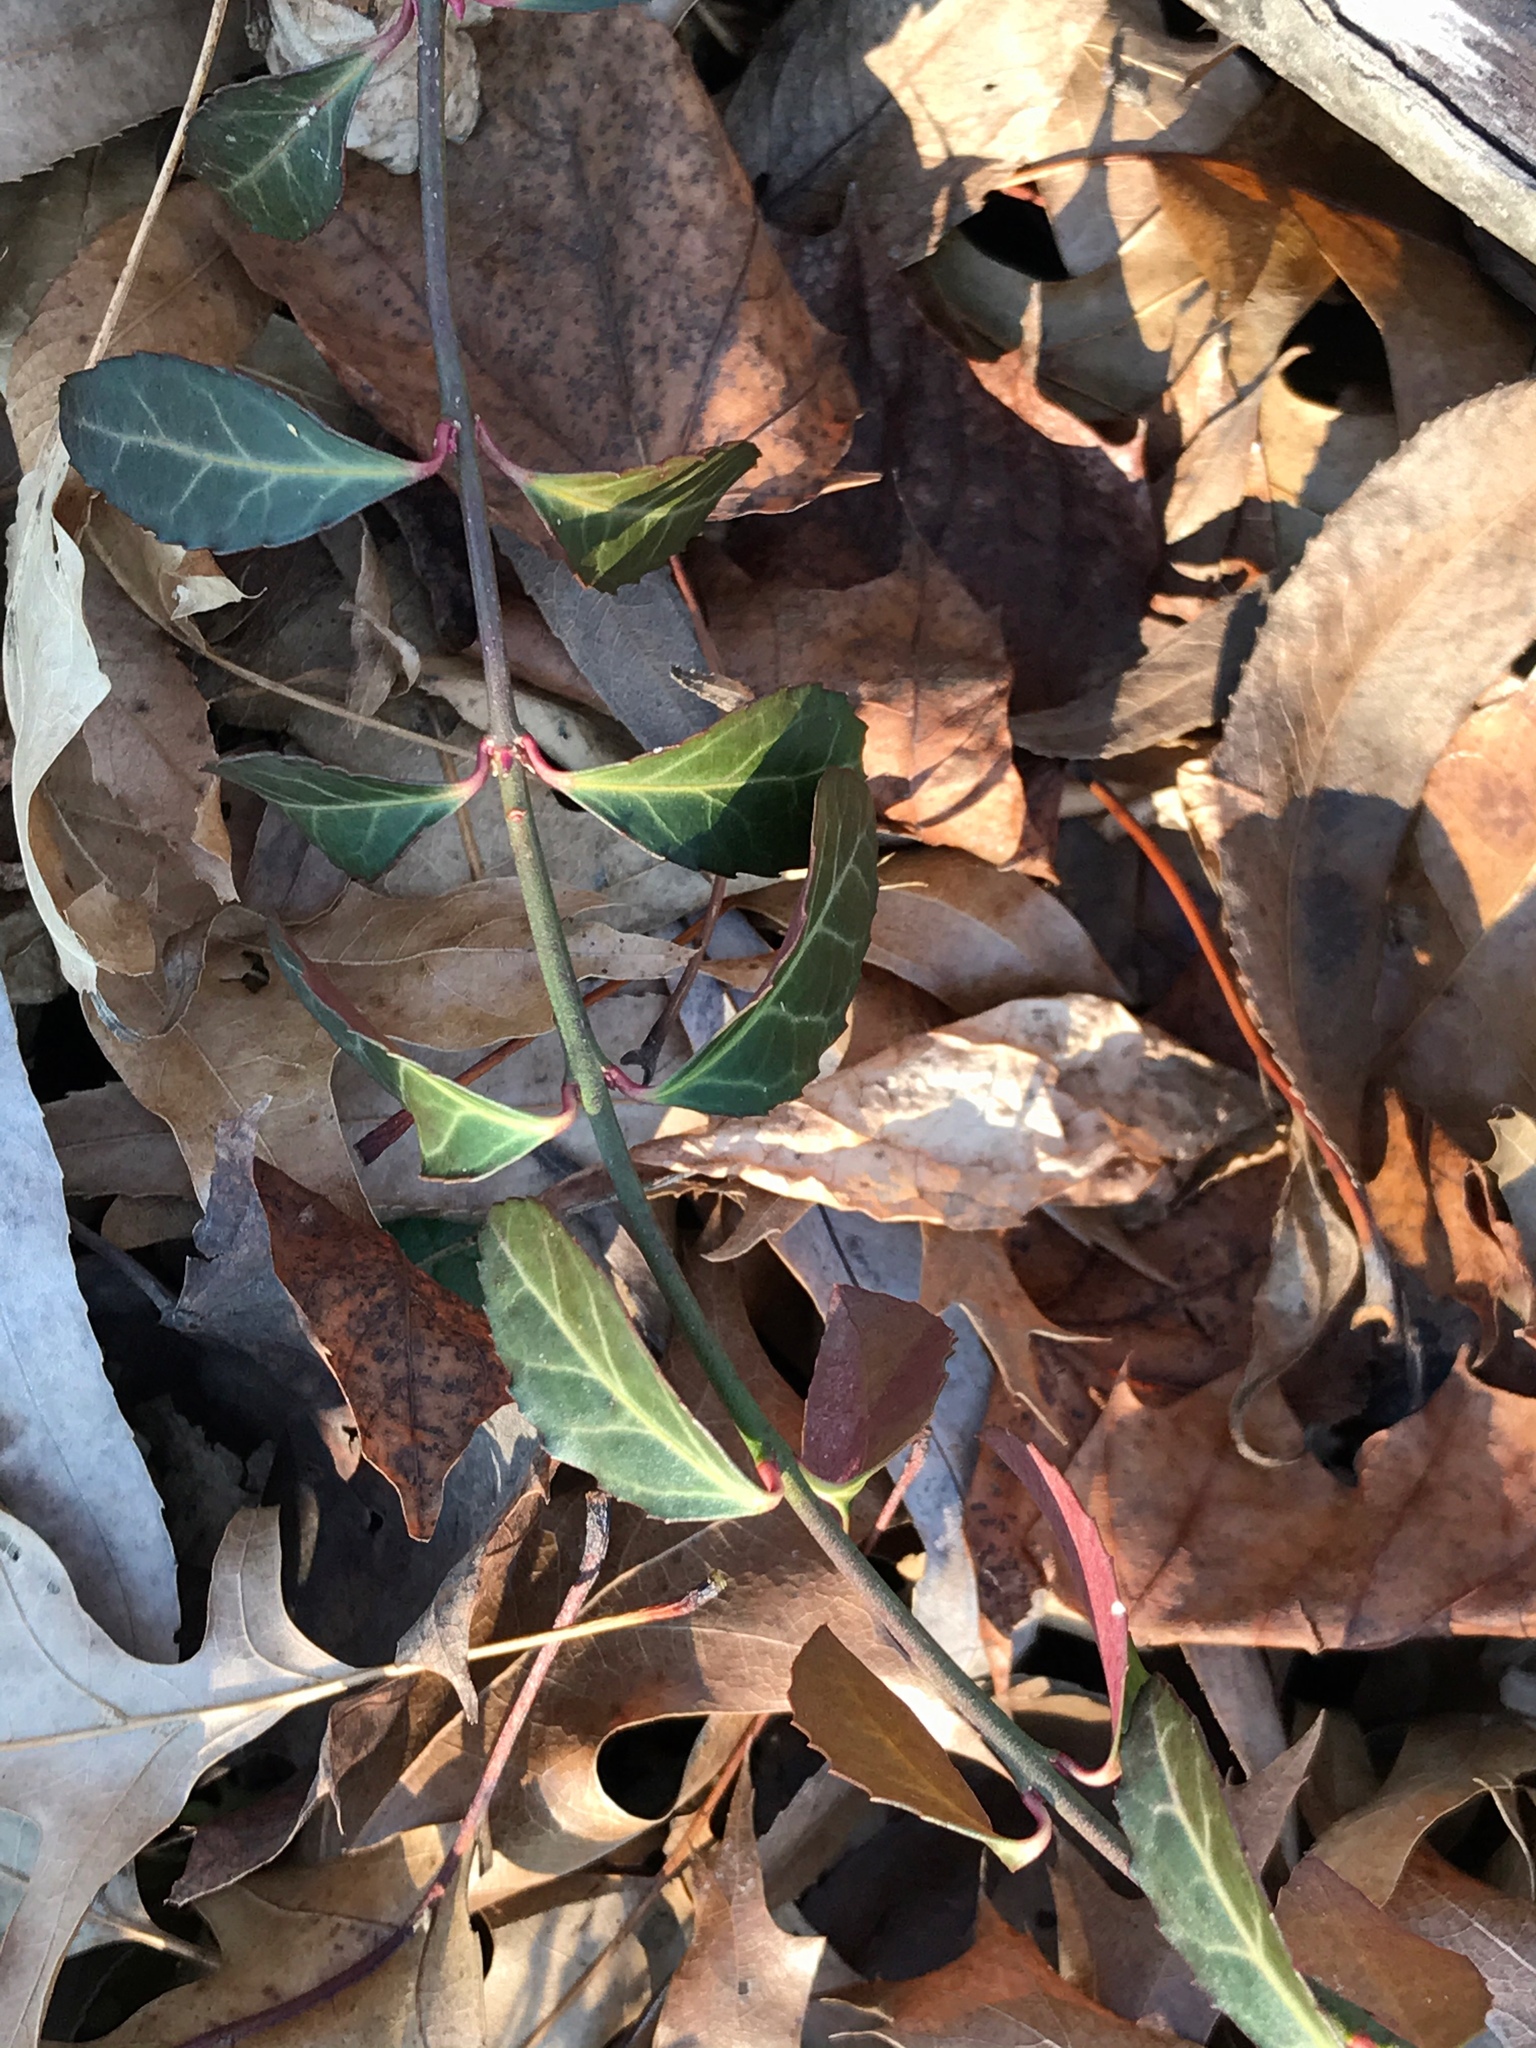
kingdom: Plantae
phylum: Tracheophyta
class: Magnoliopsida
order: Celastrales
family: Celastraceae
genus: Euonymus
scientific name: Euonymus fortunei
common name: Climbing euonymus
